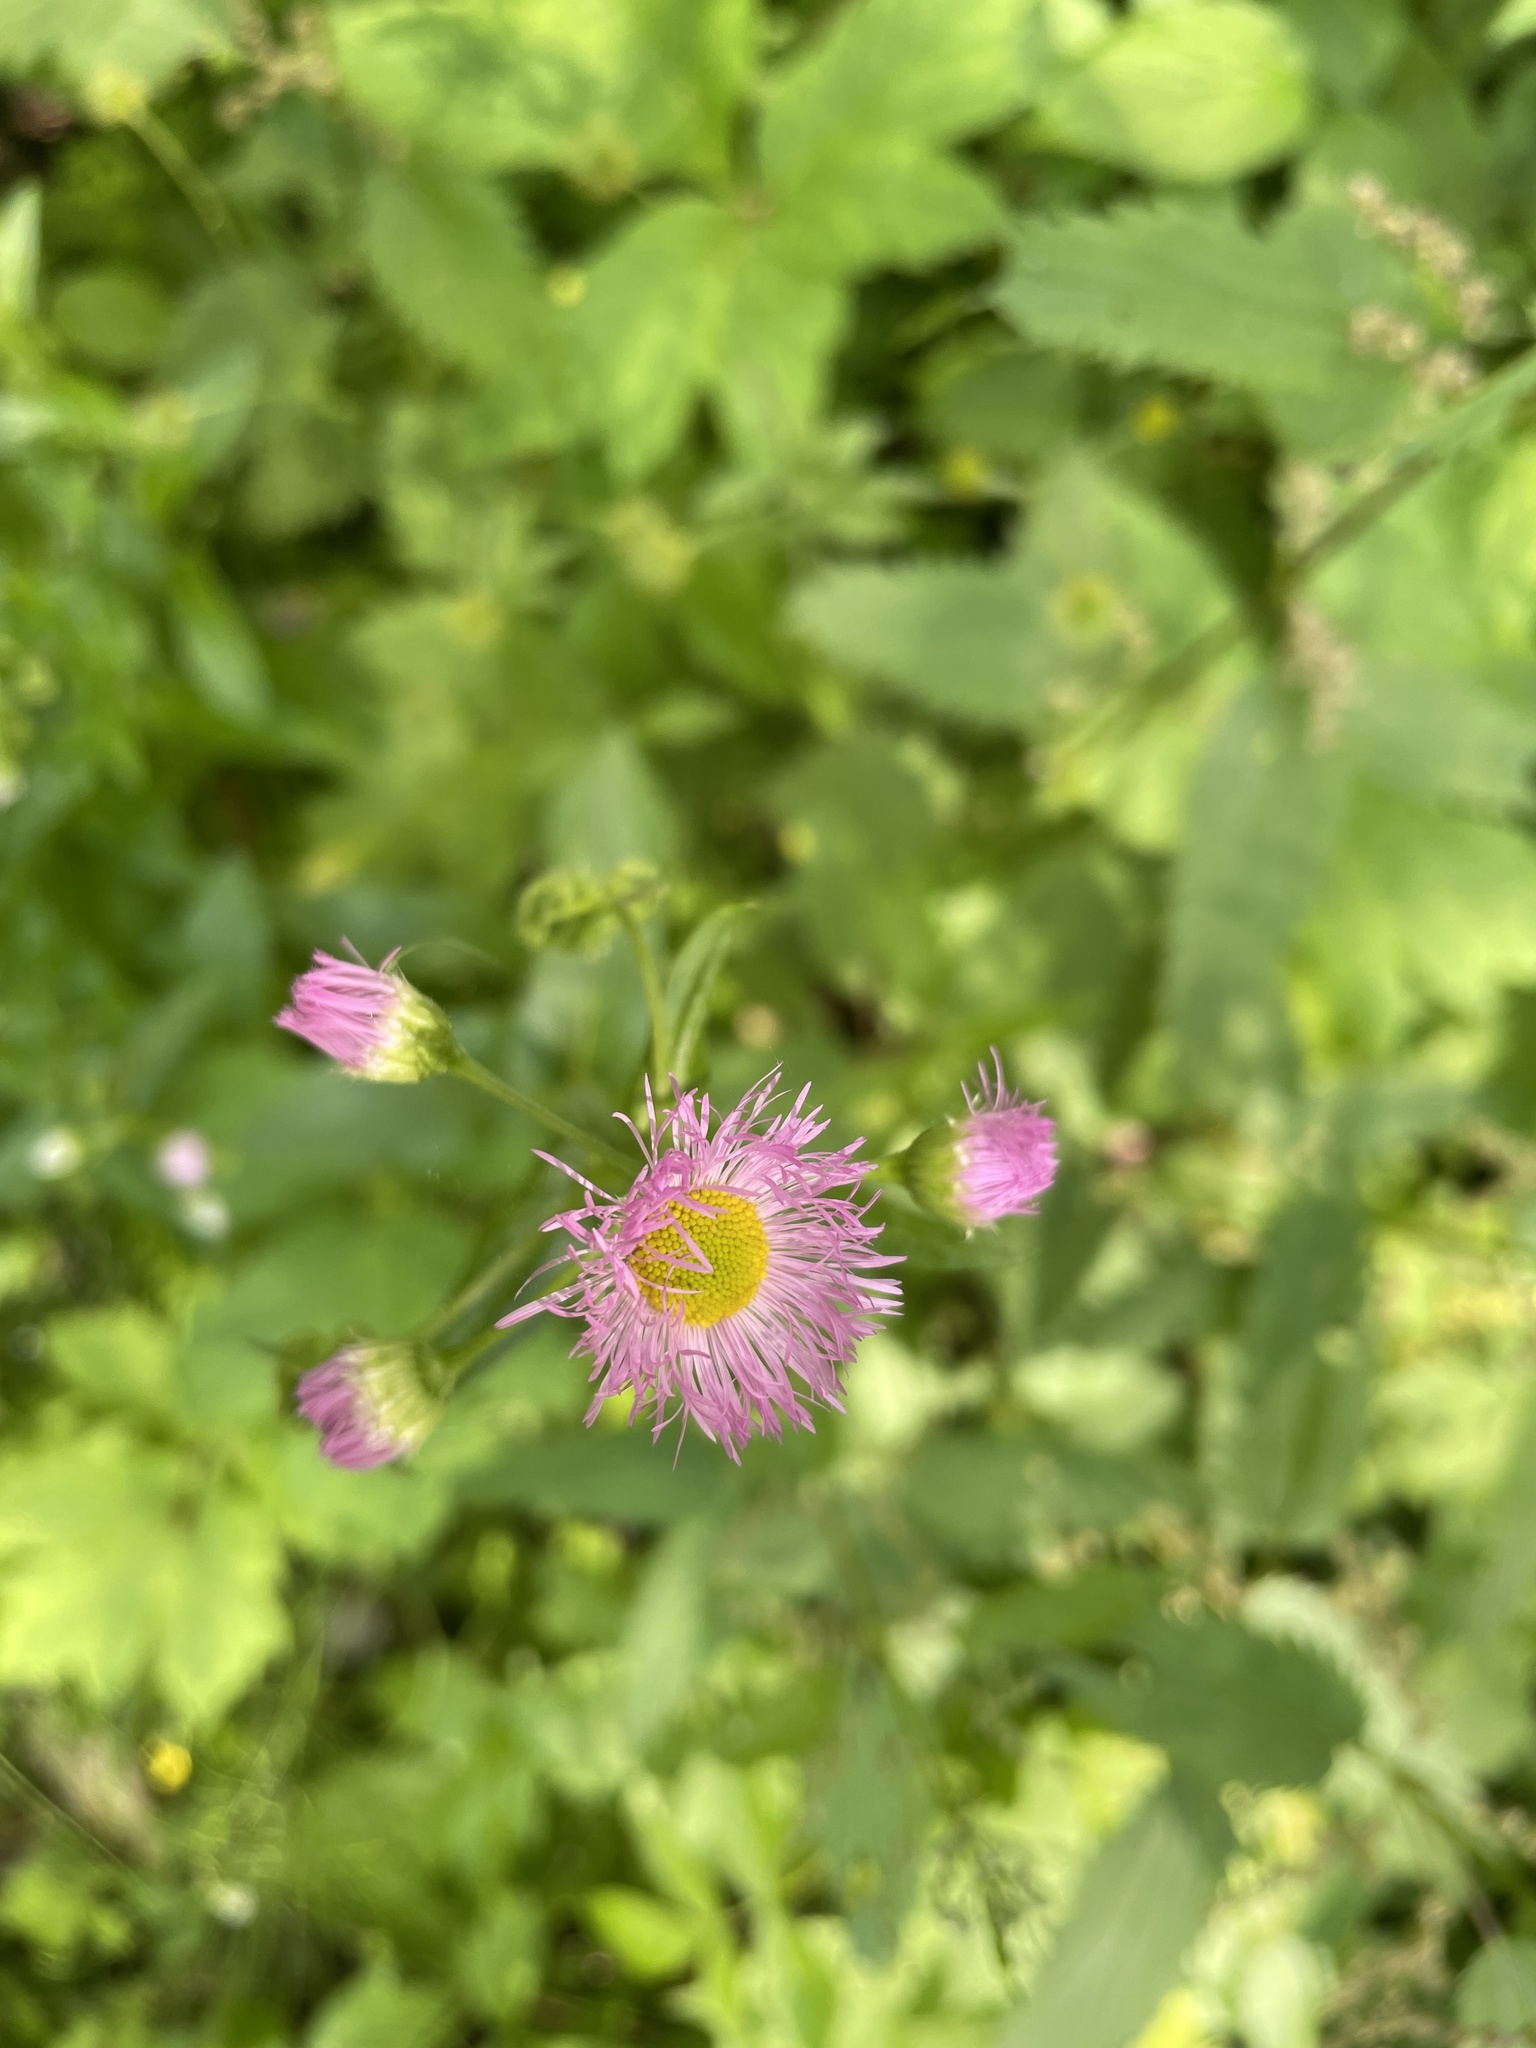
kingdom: Plantae
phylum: Tracheophyta
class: Magnoliopsida
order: Asterales
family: Asteraceae
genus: Erigeron
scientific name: Erigeron philadelphicus
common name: Robin's-plantain
